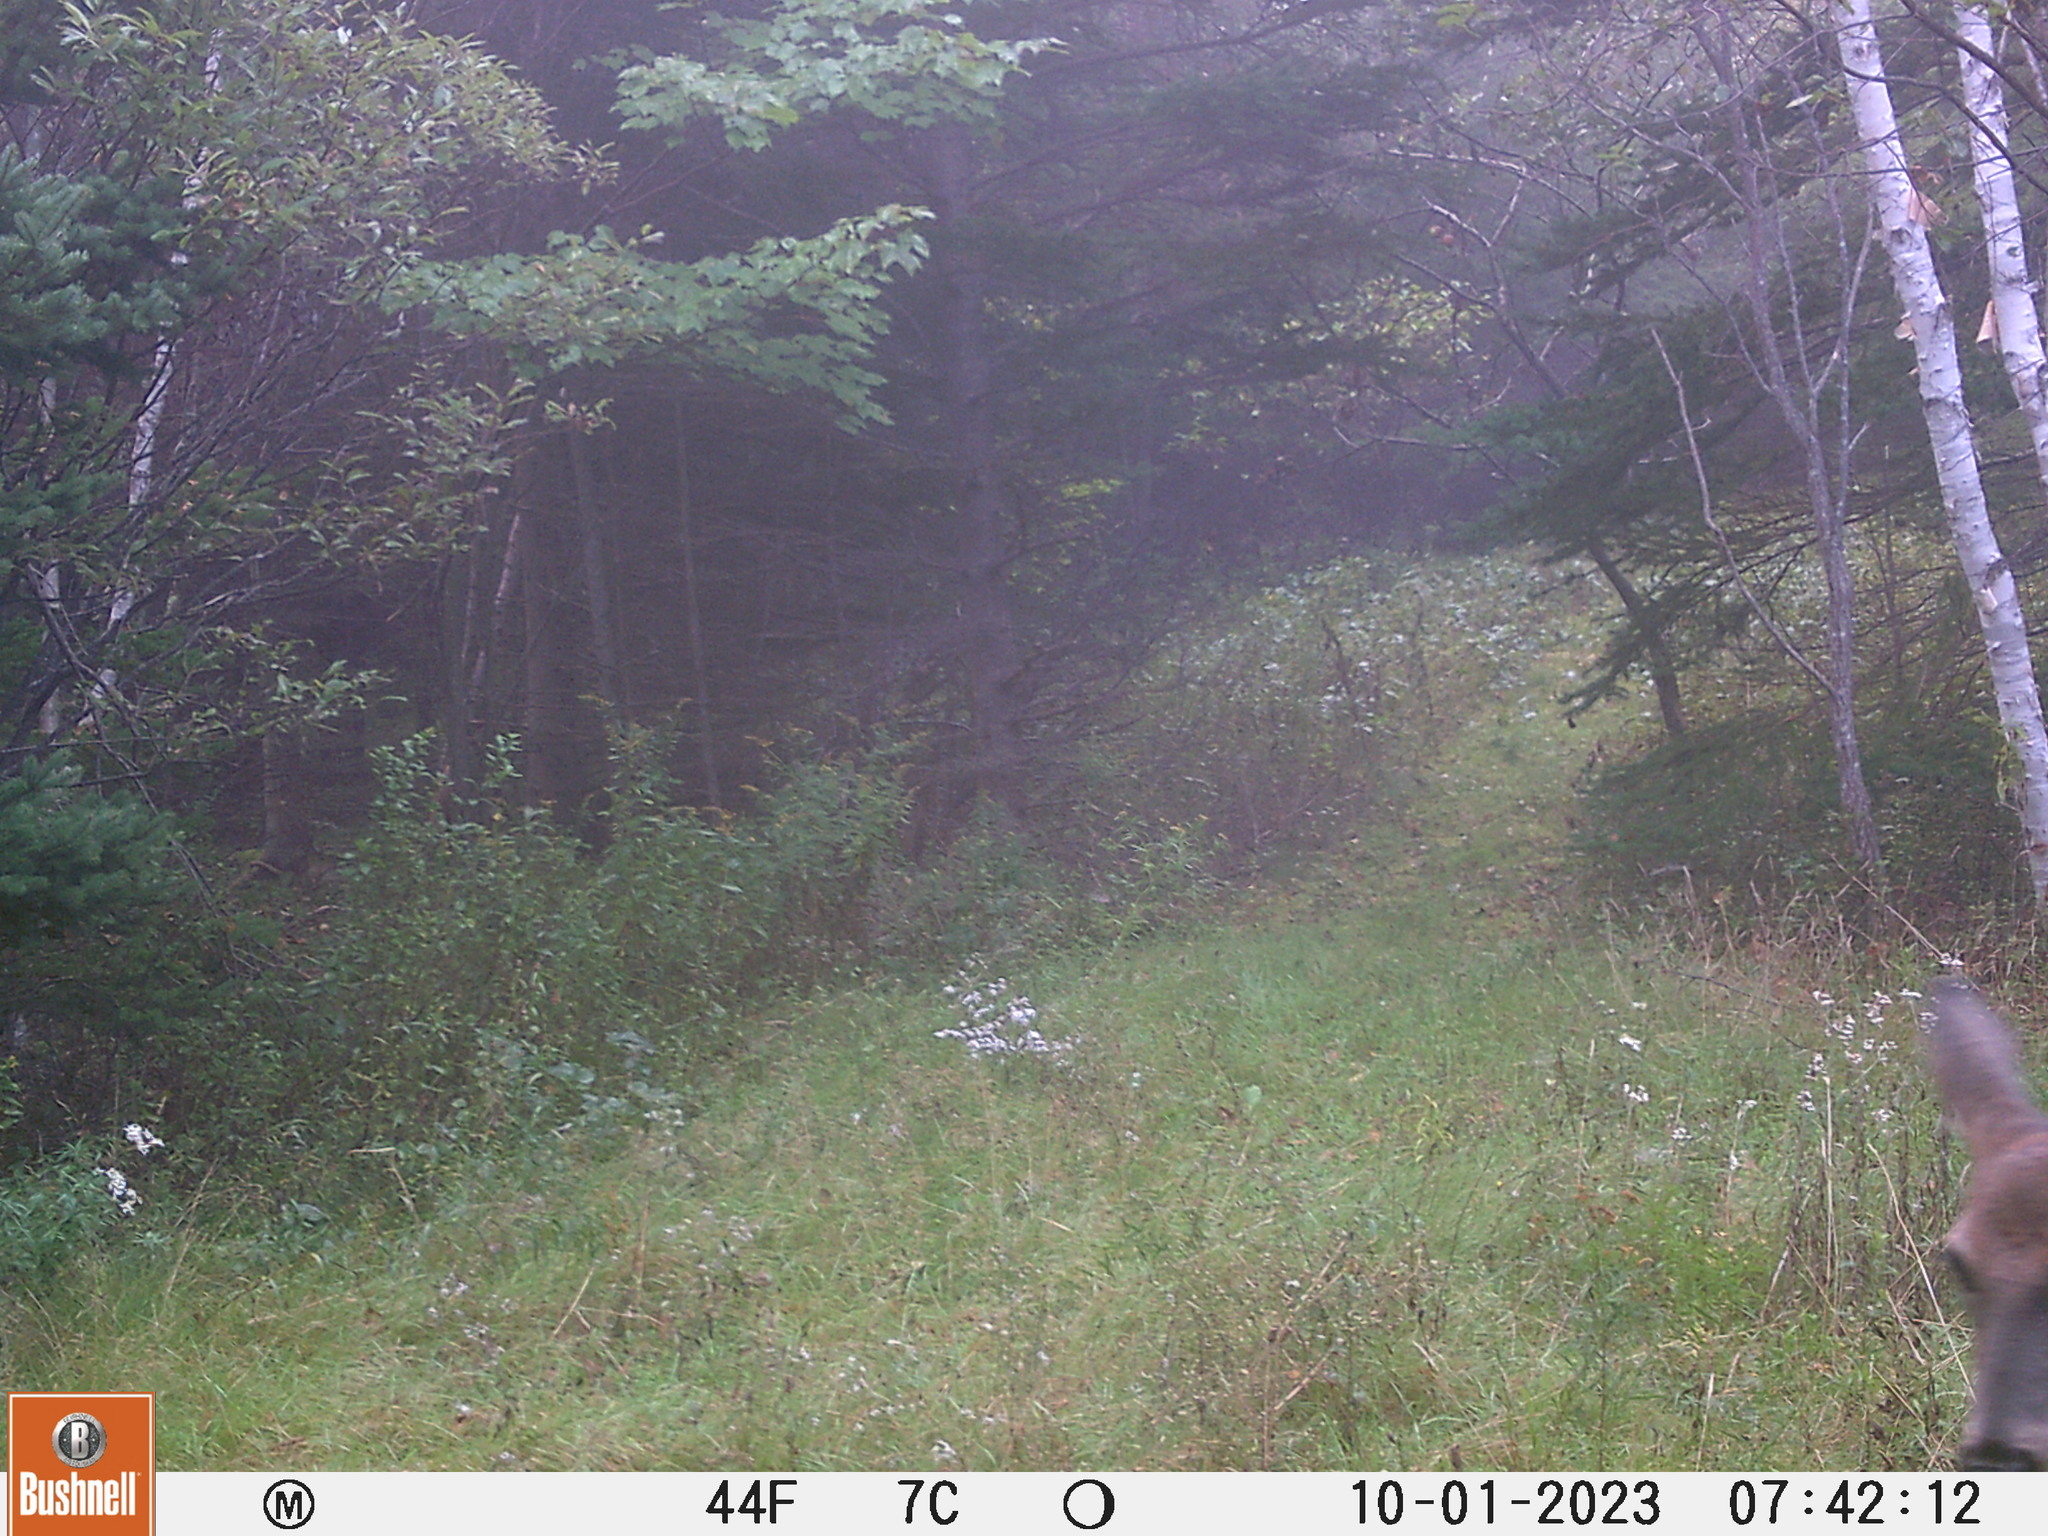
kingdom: Animalia
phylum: Chordata
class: Mammalia
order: Artiodactyla
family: Cervidae
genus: Odocoileus
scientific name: Odocoileus virginianus
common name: White-tailed deer
